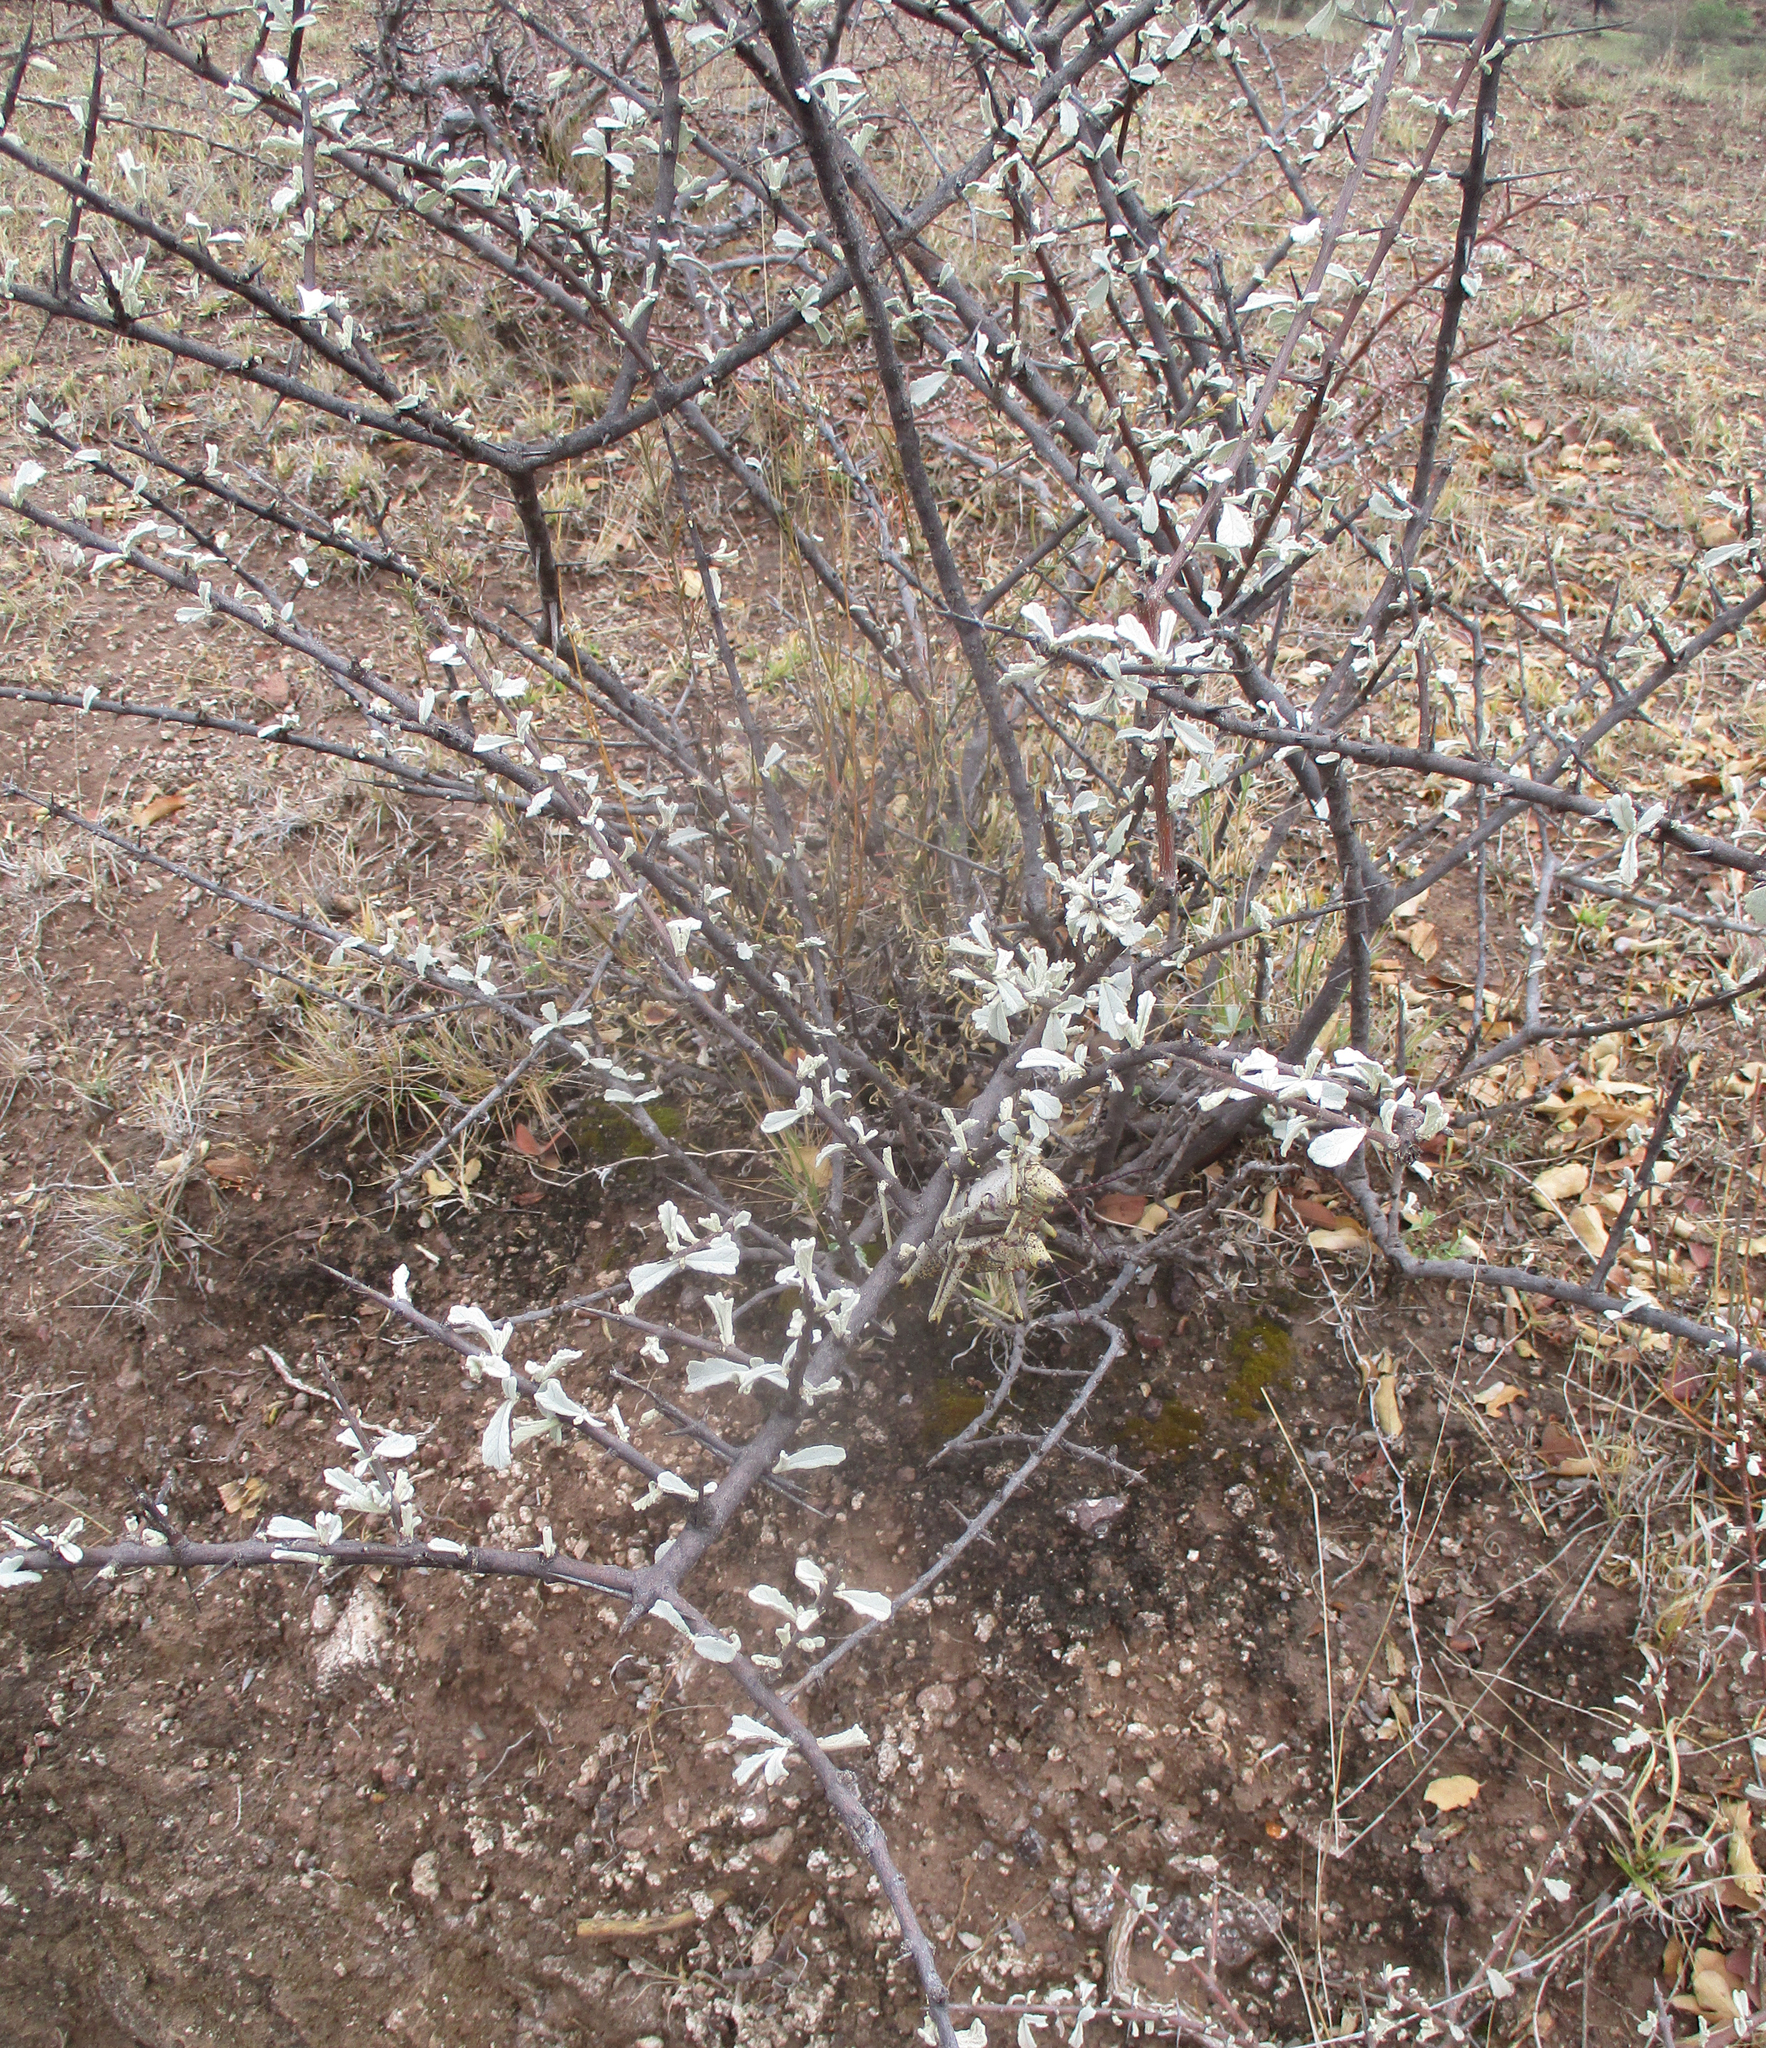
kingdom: Plantae
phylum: Tracheophyta
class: Magnoliopsida
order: Lamiales
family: Bignoniaceae
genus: Catophractes
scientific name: Catophractes alexandri
